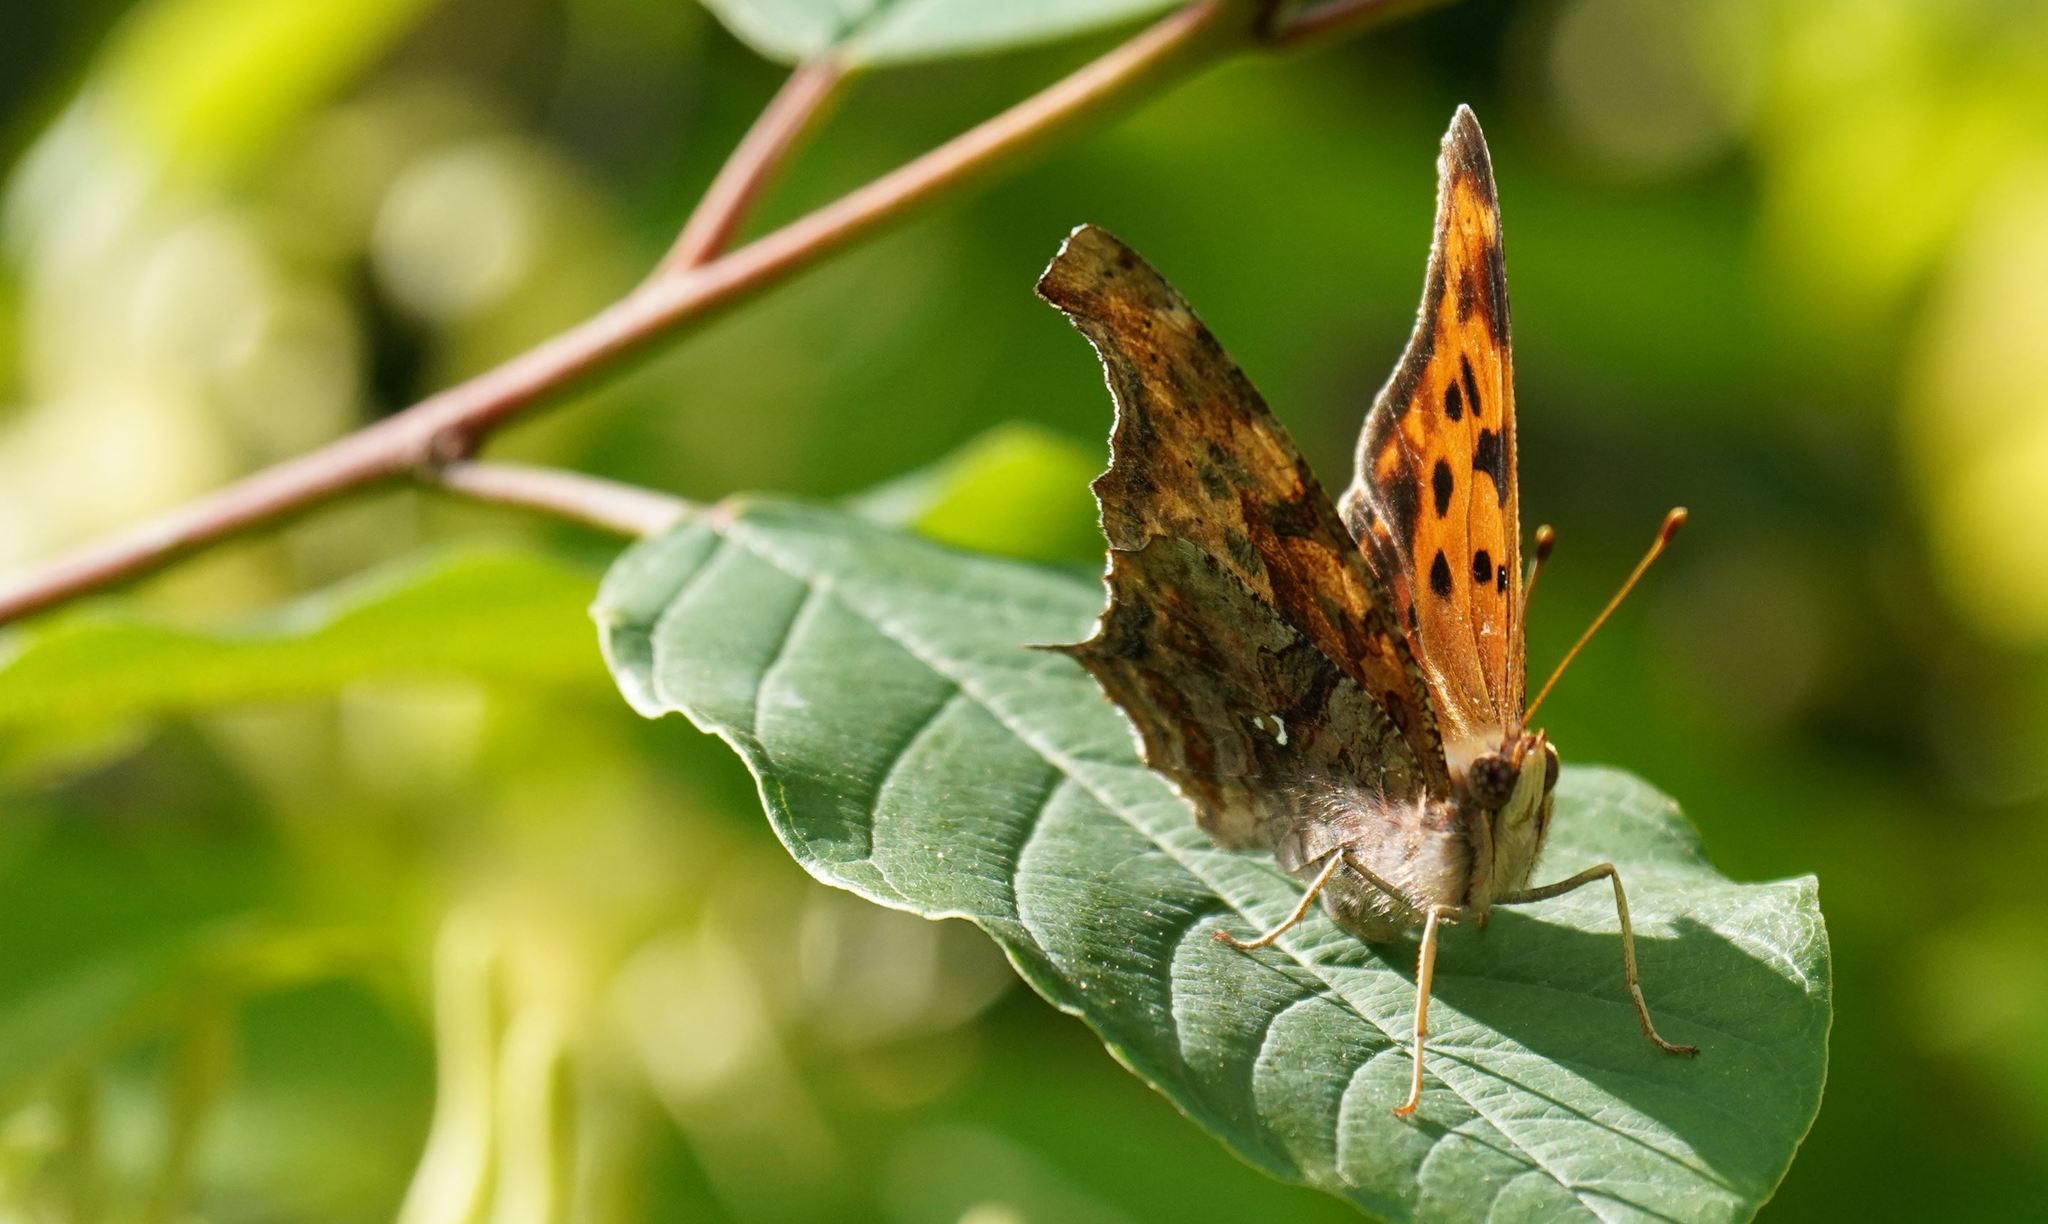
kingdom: Animalia
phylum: Arthropoda
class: Insecta
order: Lepidoptera
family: Nymphalidae
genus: Polygonia
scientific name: Polygonia interrogationis
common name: Question mark
